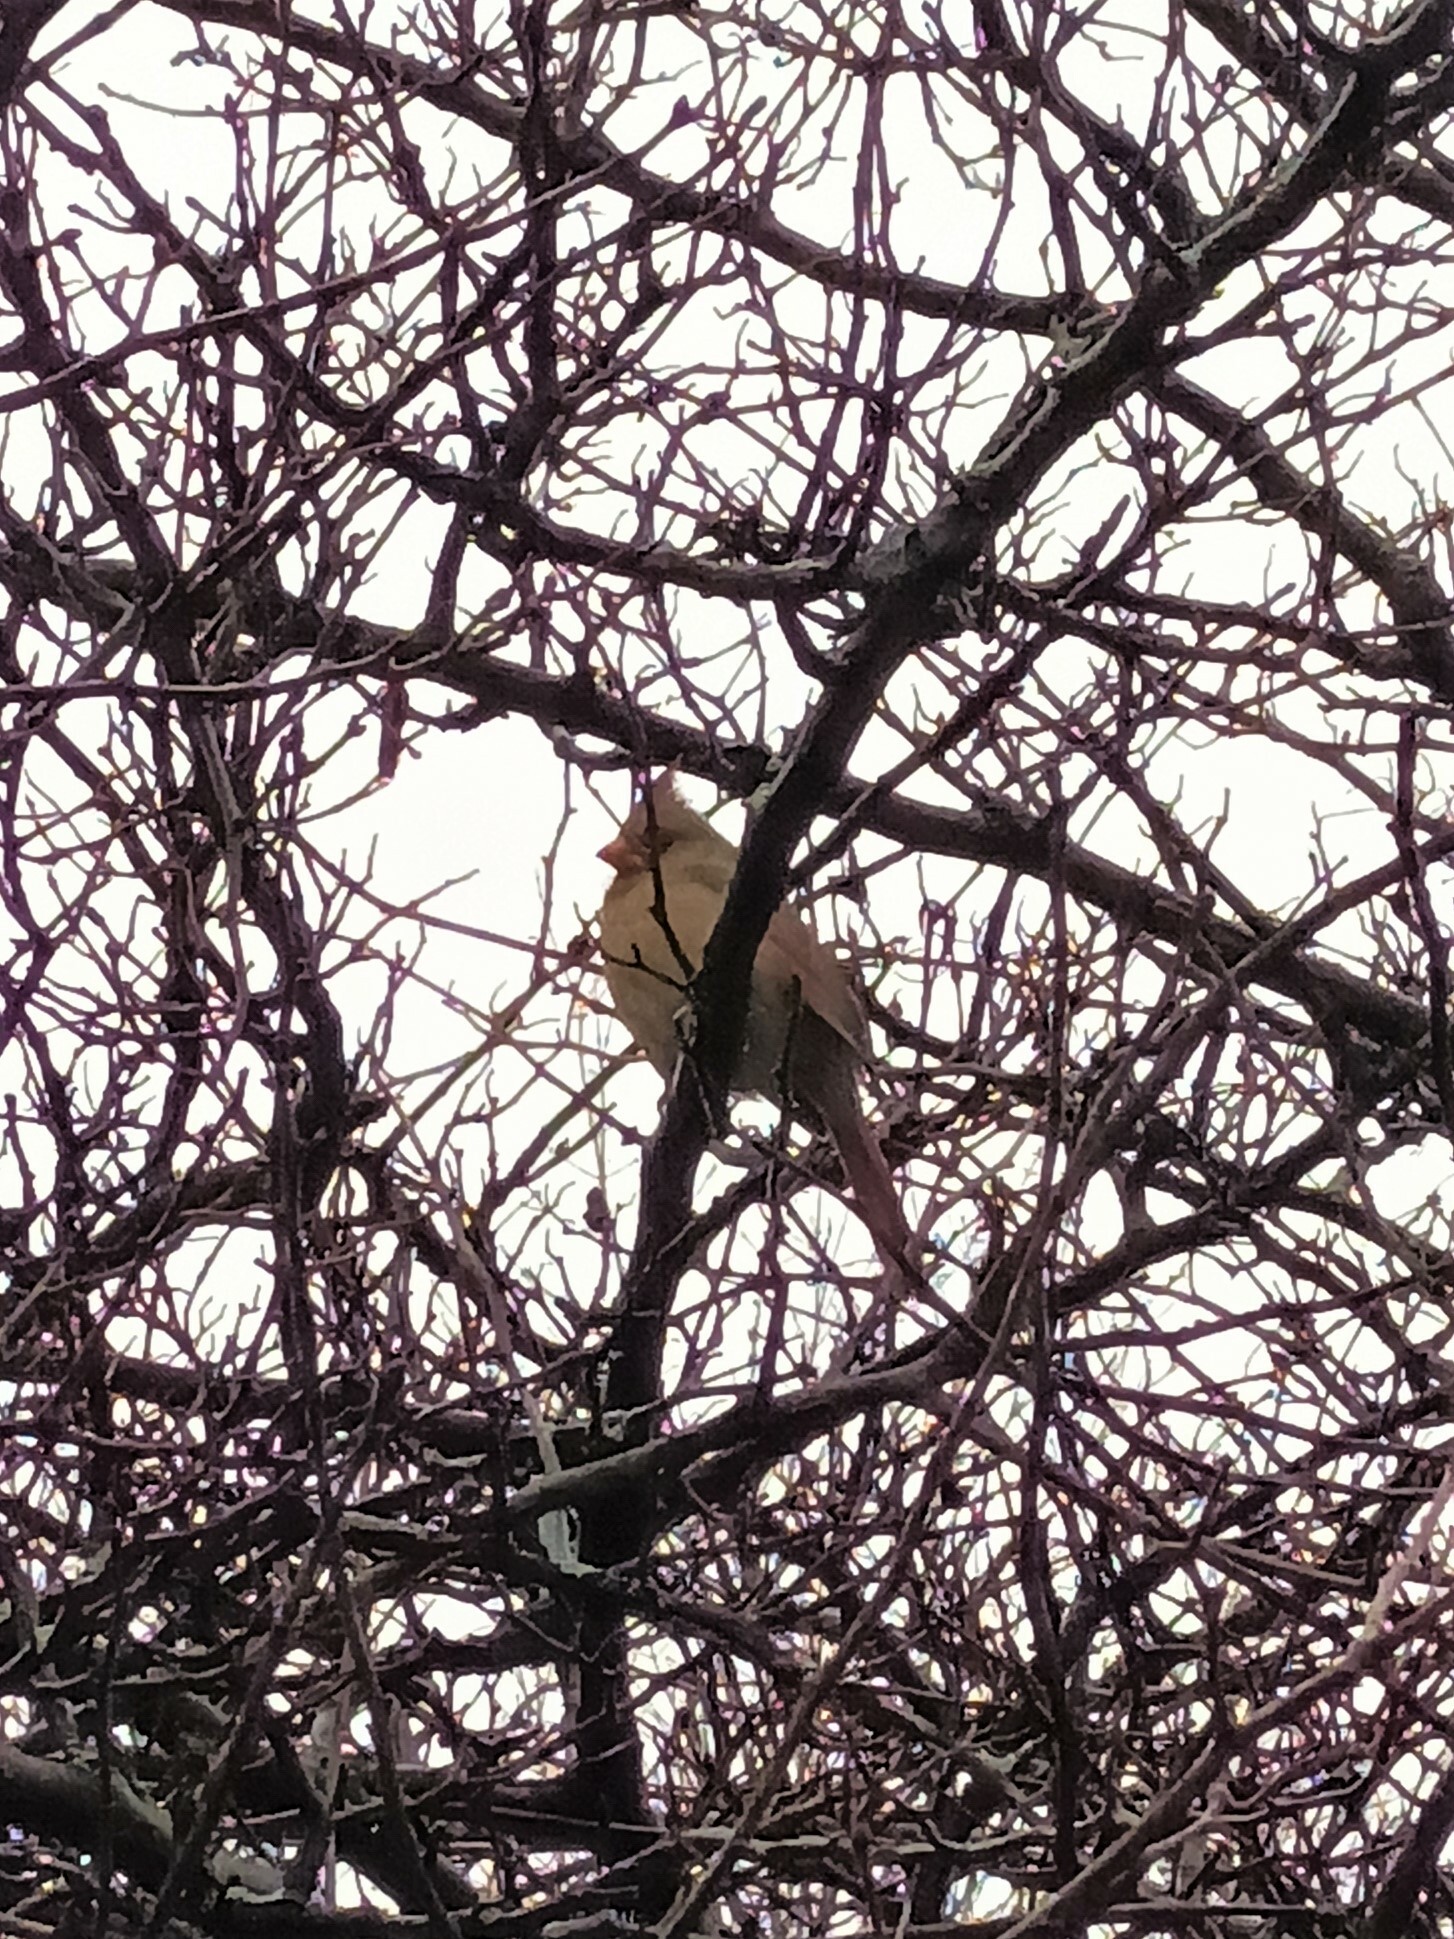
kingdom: Animalia
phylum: Chordata
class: Aves
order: Passeriformes
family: Cardinalidae
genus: Cardinalis
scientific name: Cardinalis cardinalis
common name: Northern cardinal
